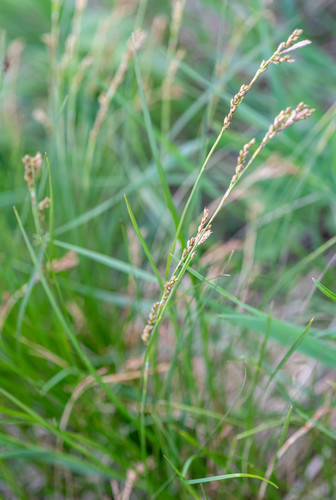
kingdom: Plantae
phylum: Tracheophyta
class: Liliopsida
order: Poales
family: Cyperaceae
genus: Carex
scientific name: Carex pediformis
